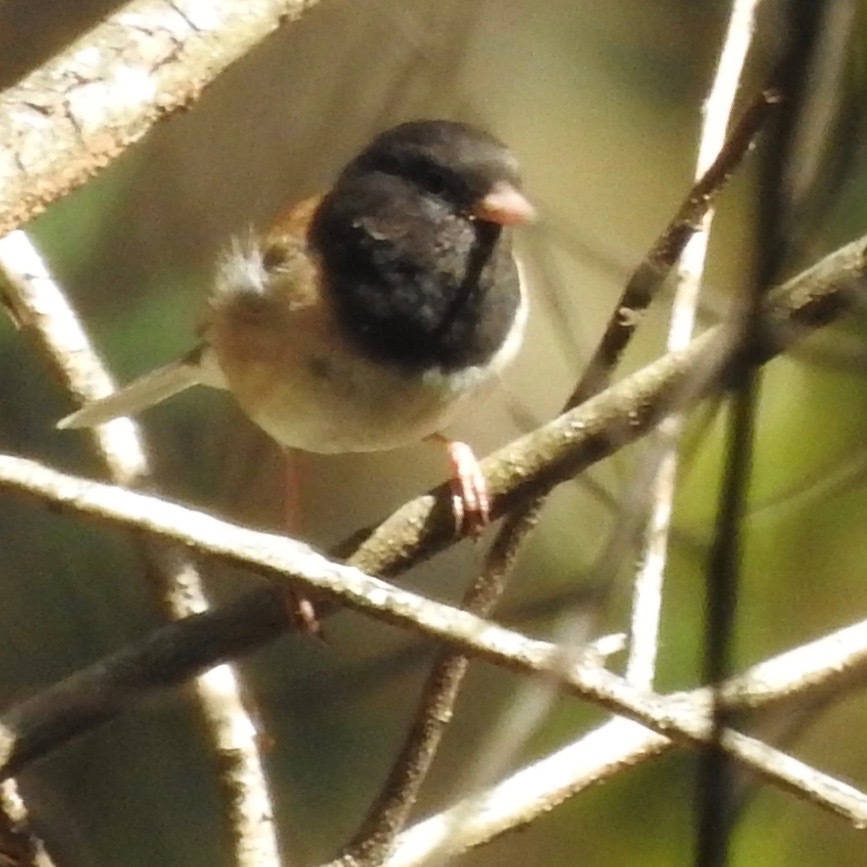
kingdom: Animalia
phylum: Chordata
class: Aves
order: Passeriformes
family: Passerellidae
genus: Junco
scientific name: Junco hyemalis
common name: Dark-eyed junco
